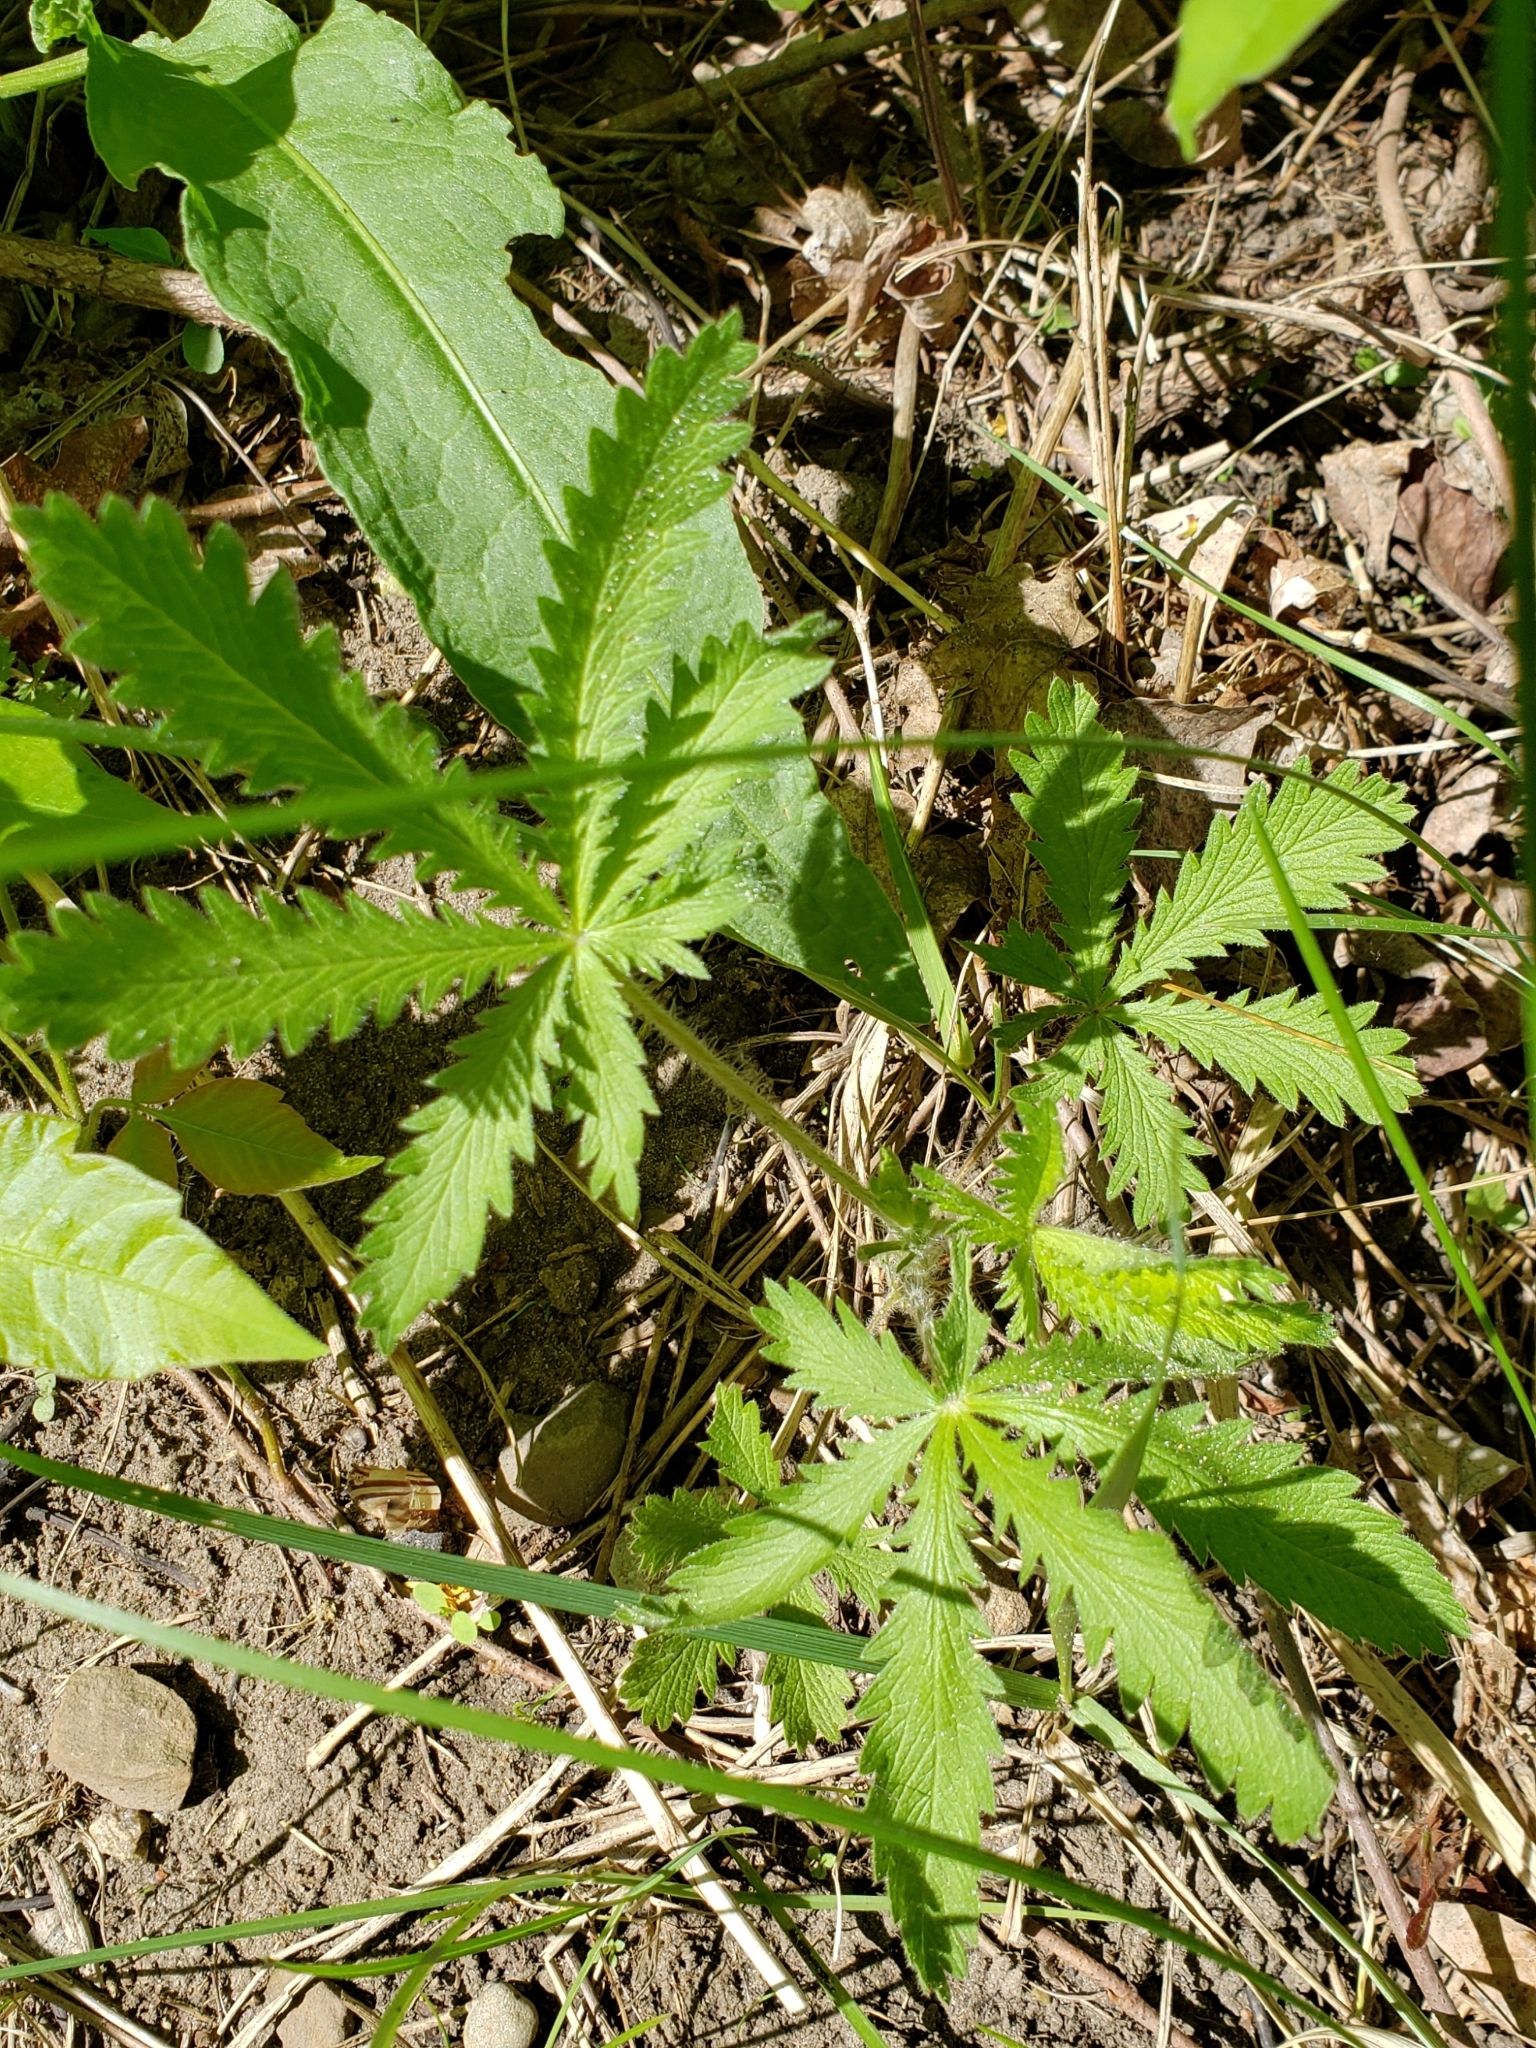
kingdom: Plantae
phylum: Tracheophyta
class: Magnoliopsida
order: Rosales
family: Rosaceae
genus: Potentilla
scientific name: Potentilla recta
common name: Sulphur cinquefoil
